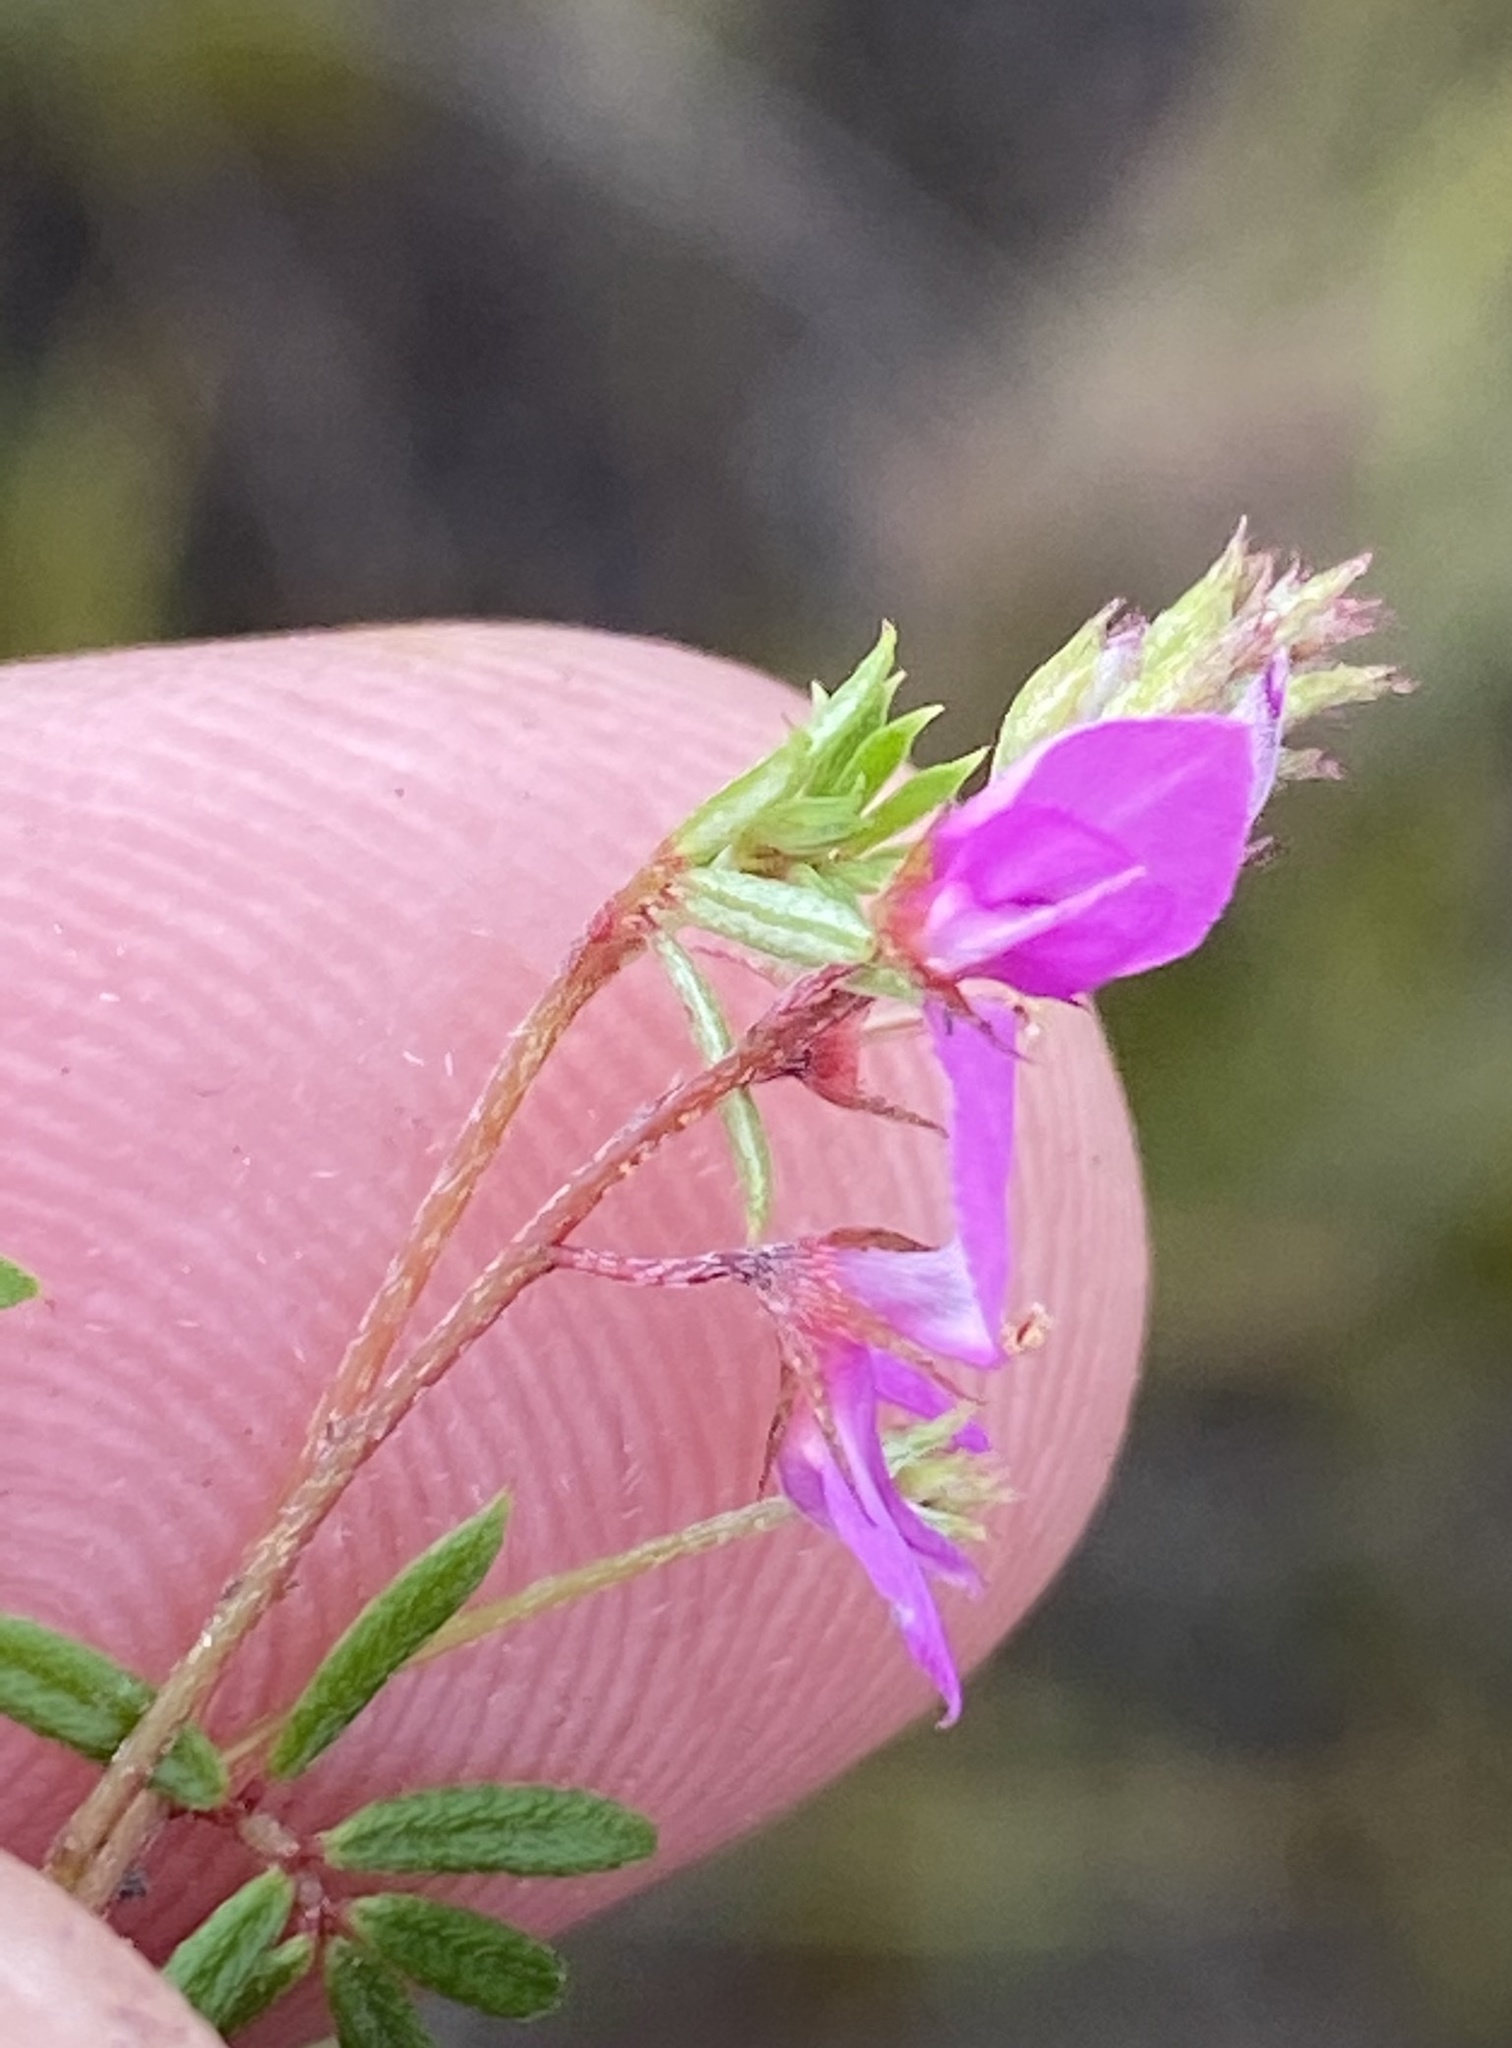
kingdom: Plantae
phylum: Tracheophyta
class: Magnoliopsida
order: Fabales
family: Fabaceae
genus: Indigofera
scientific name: Indigofera angustifolia
